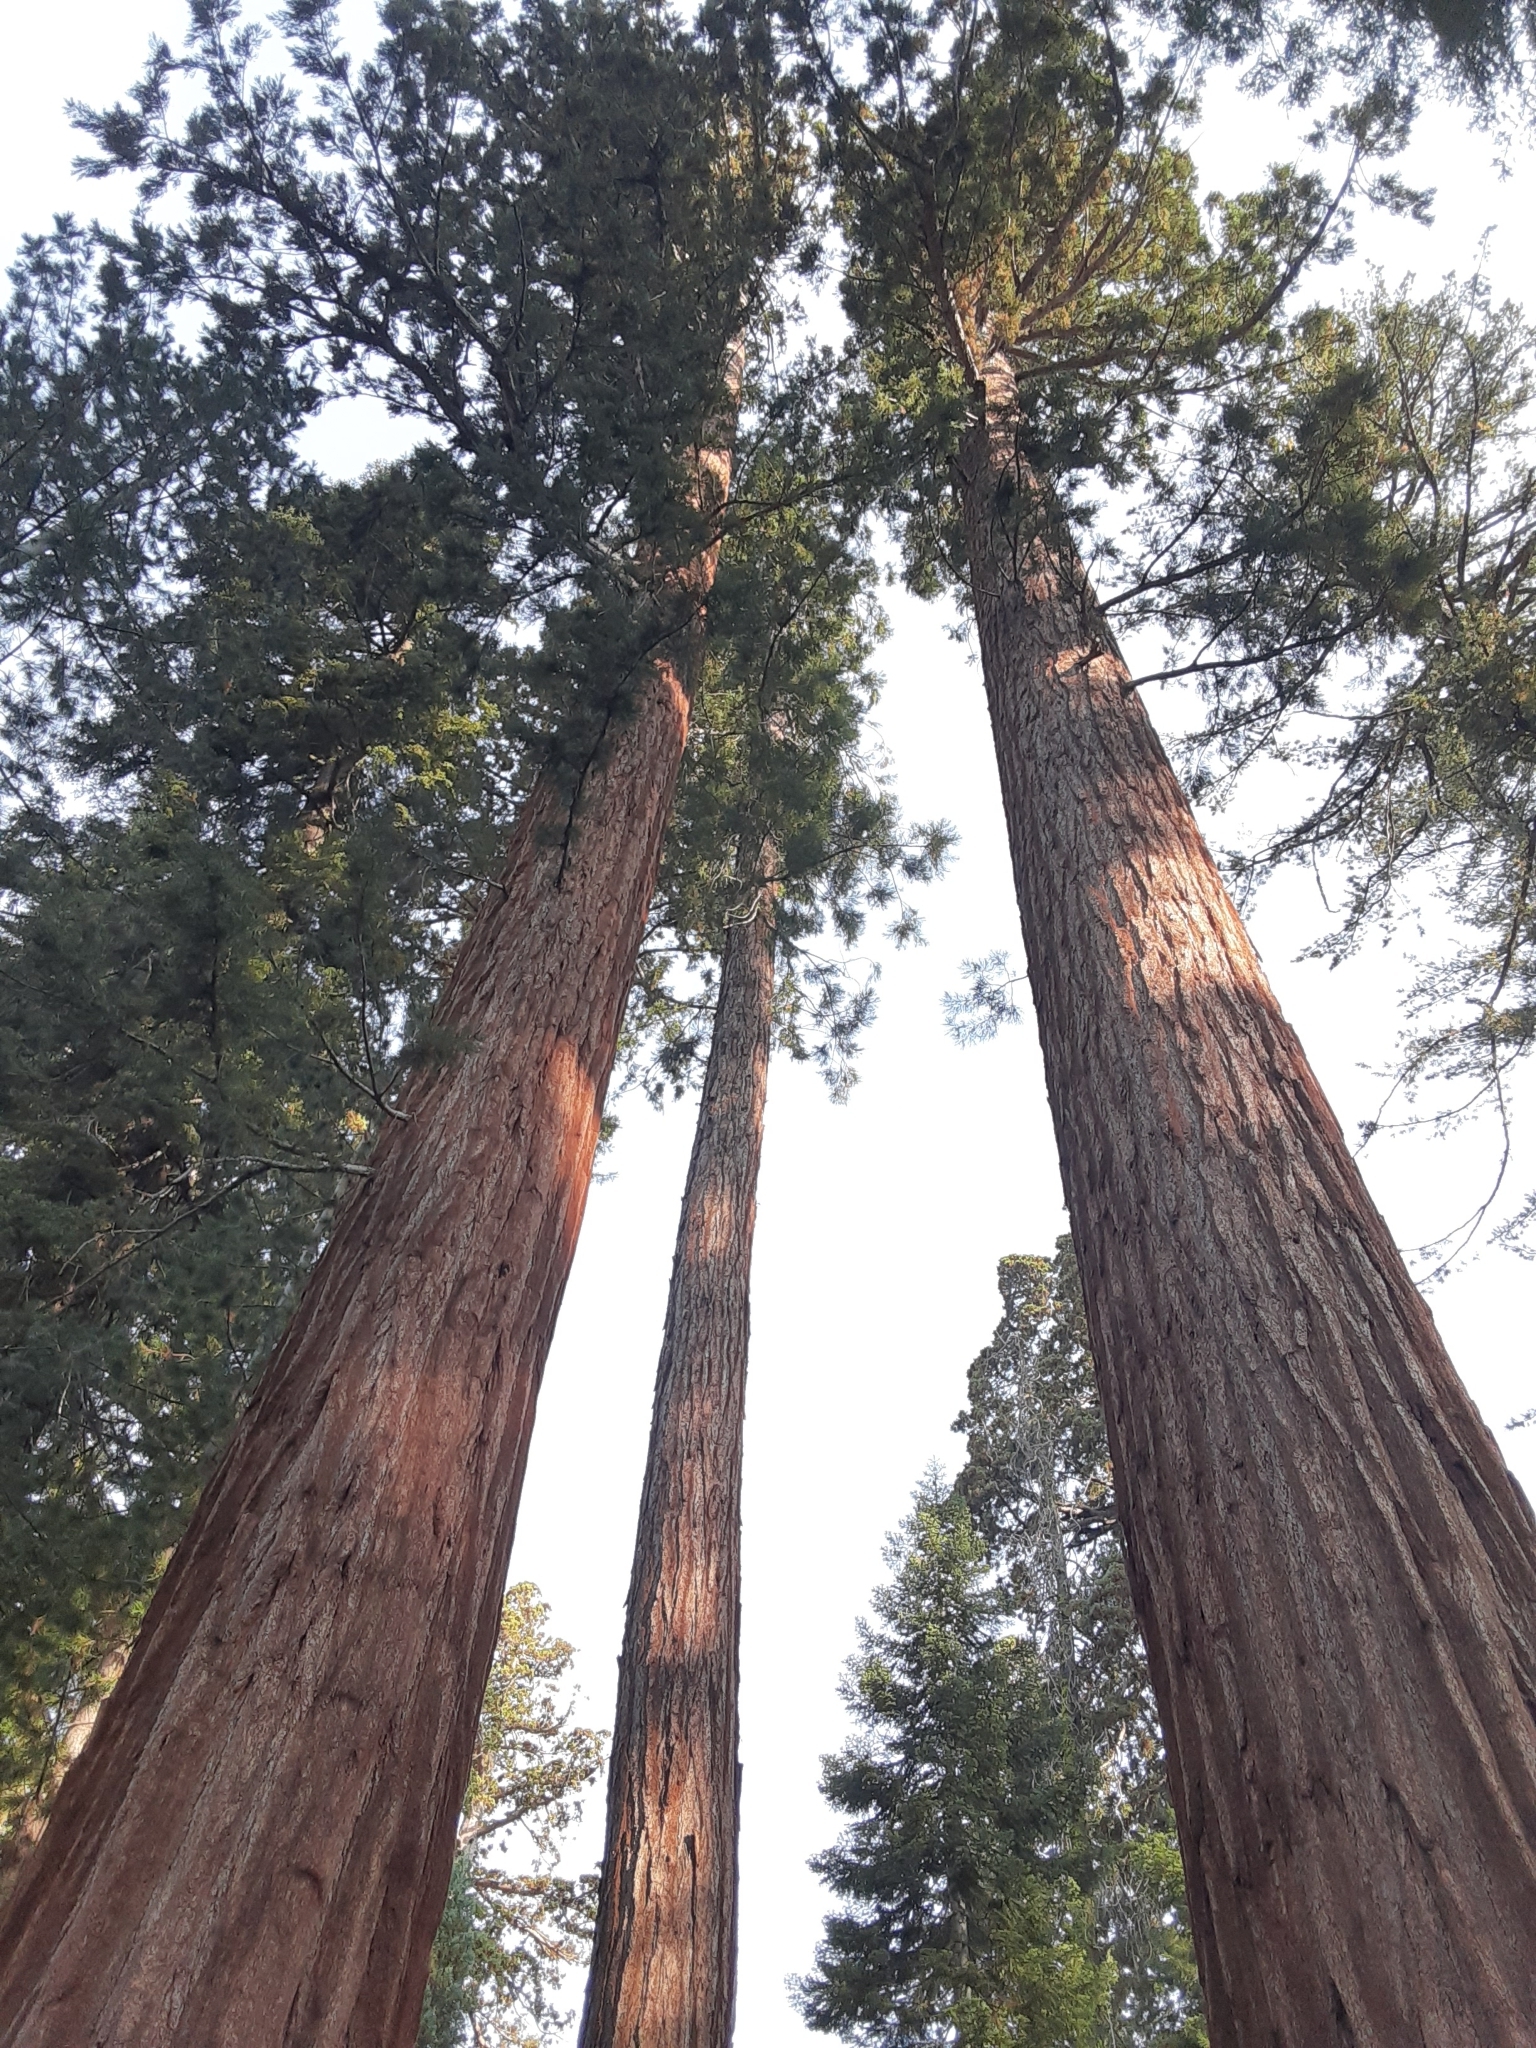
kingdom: Plantae
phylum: Tracheophyta
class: Pinopsida
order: Pinales
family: Cupressaceae
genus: Sequoiadendron
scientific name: Sequoiadendron giganteum
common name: Wellingtonia
